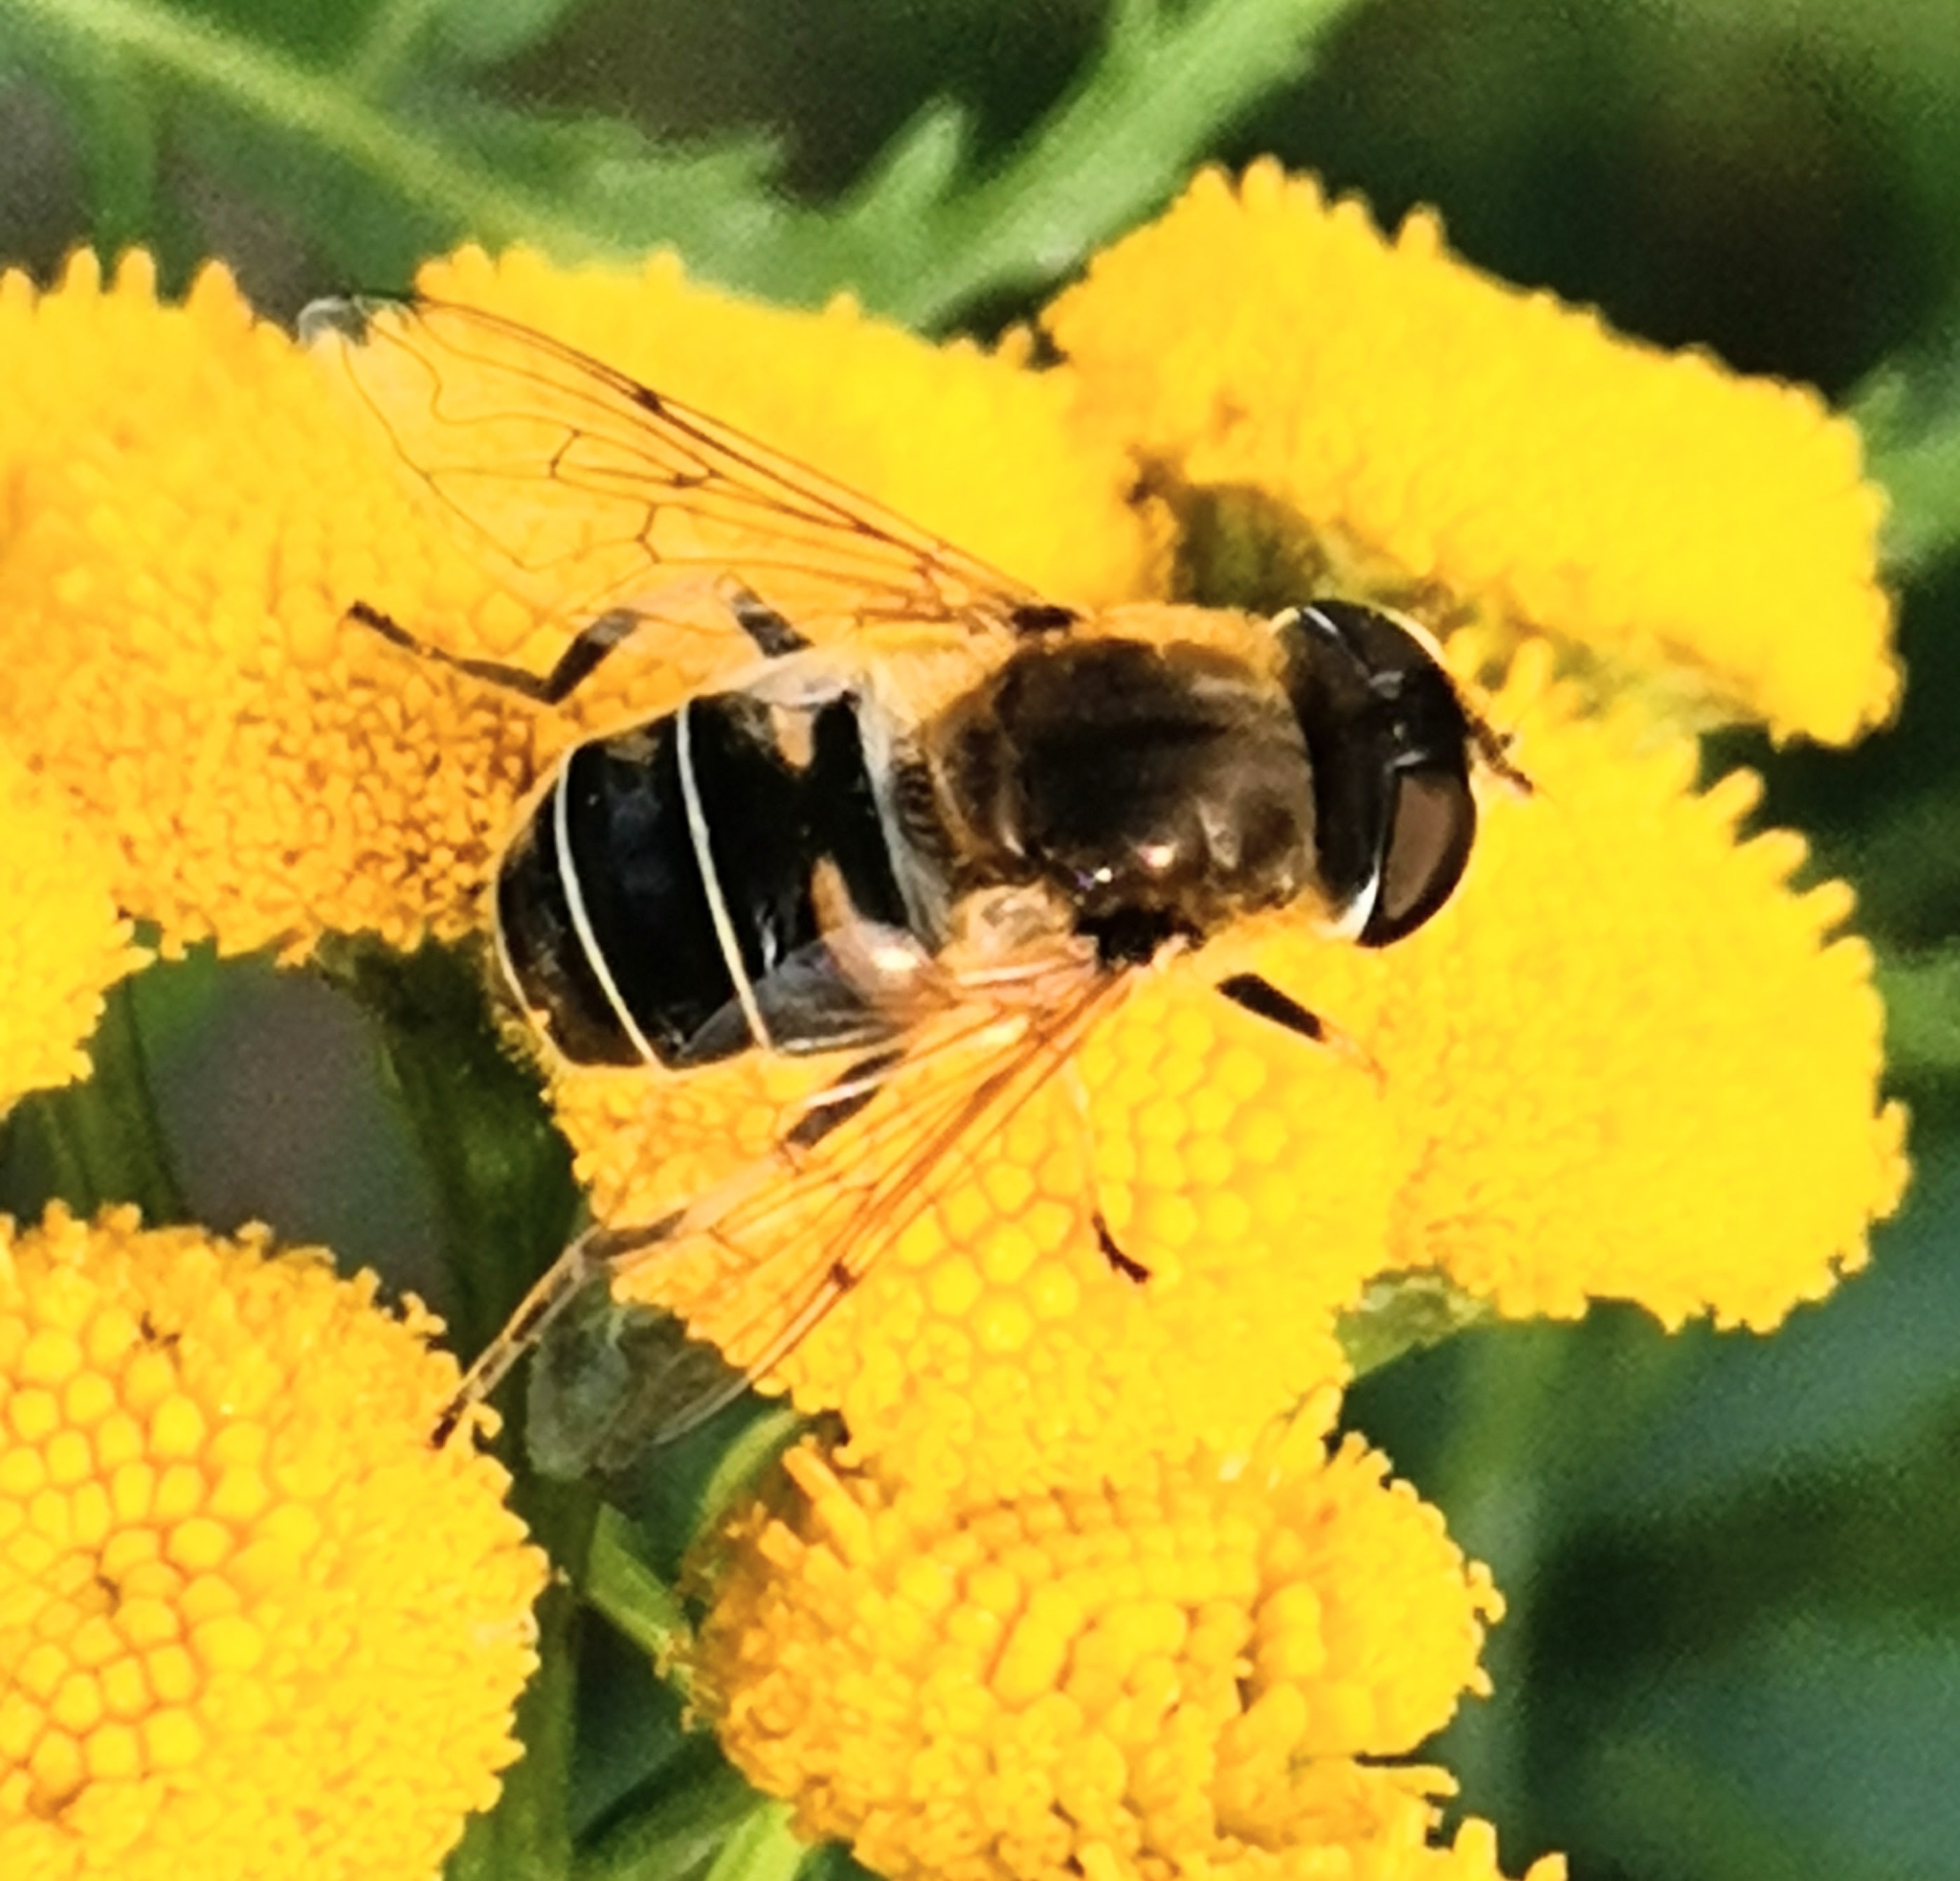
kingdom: Animalia
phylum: Arthropoda
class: Insecta
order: Diptera
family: Syrphidae
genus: Eristalis
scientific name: Eristalis nemorum
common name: Orange-spined drone fly
